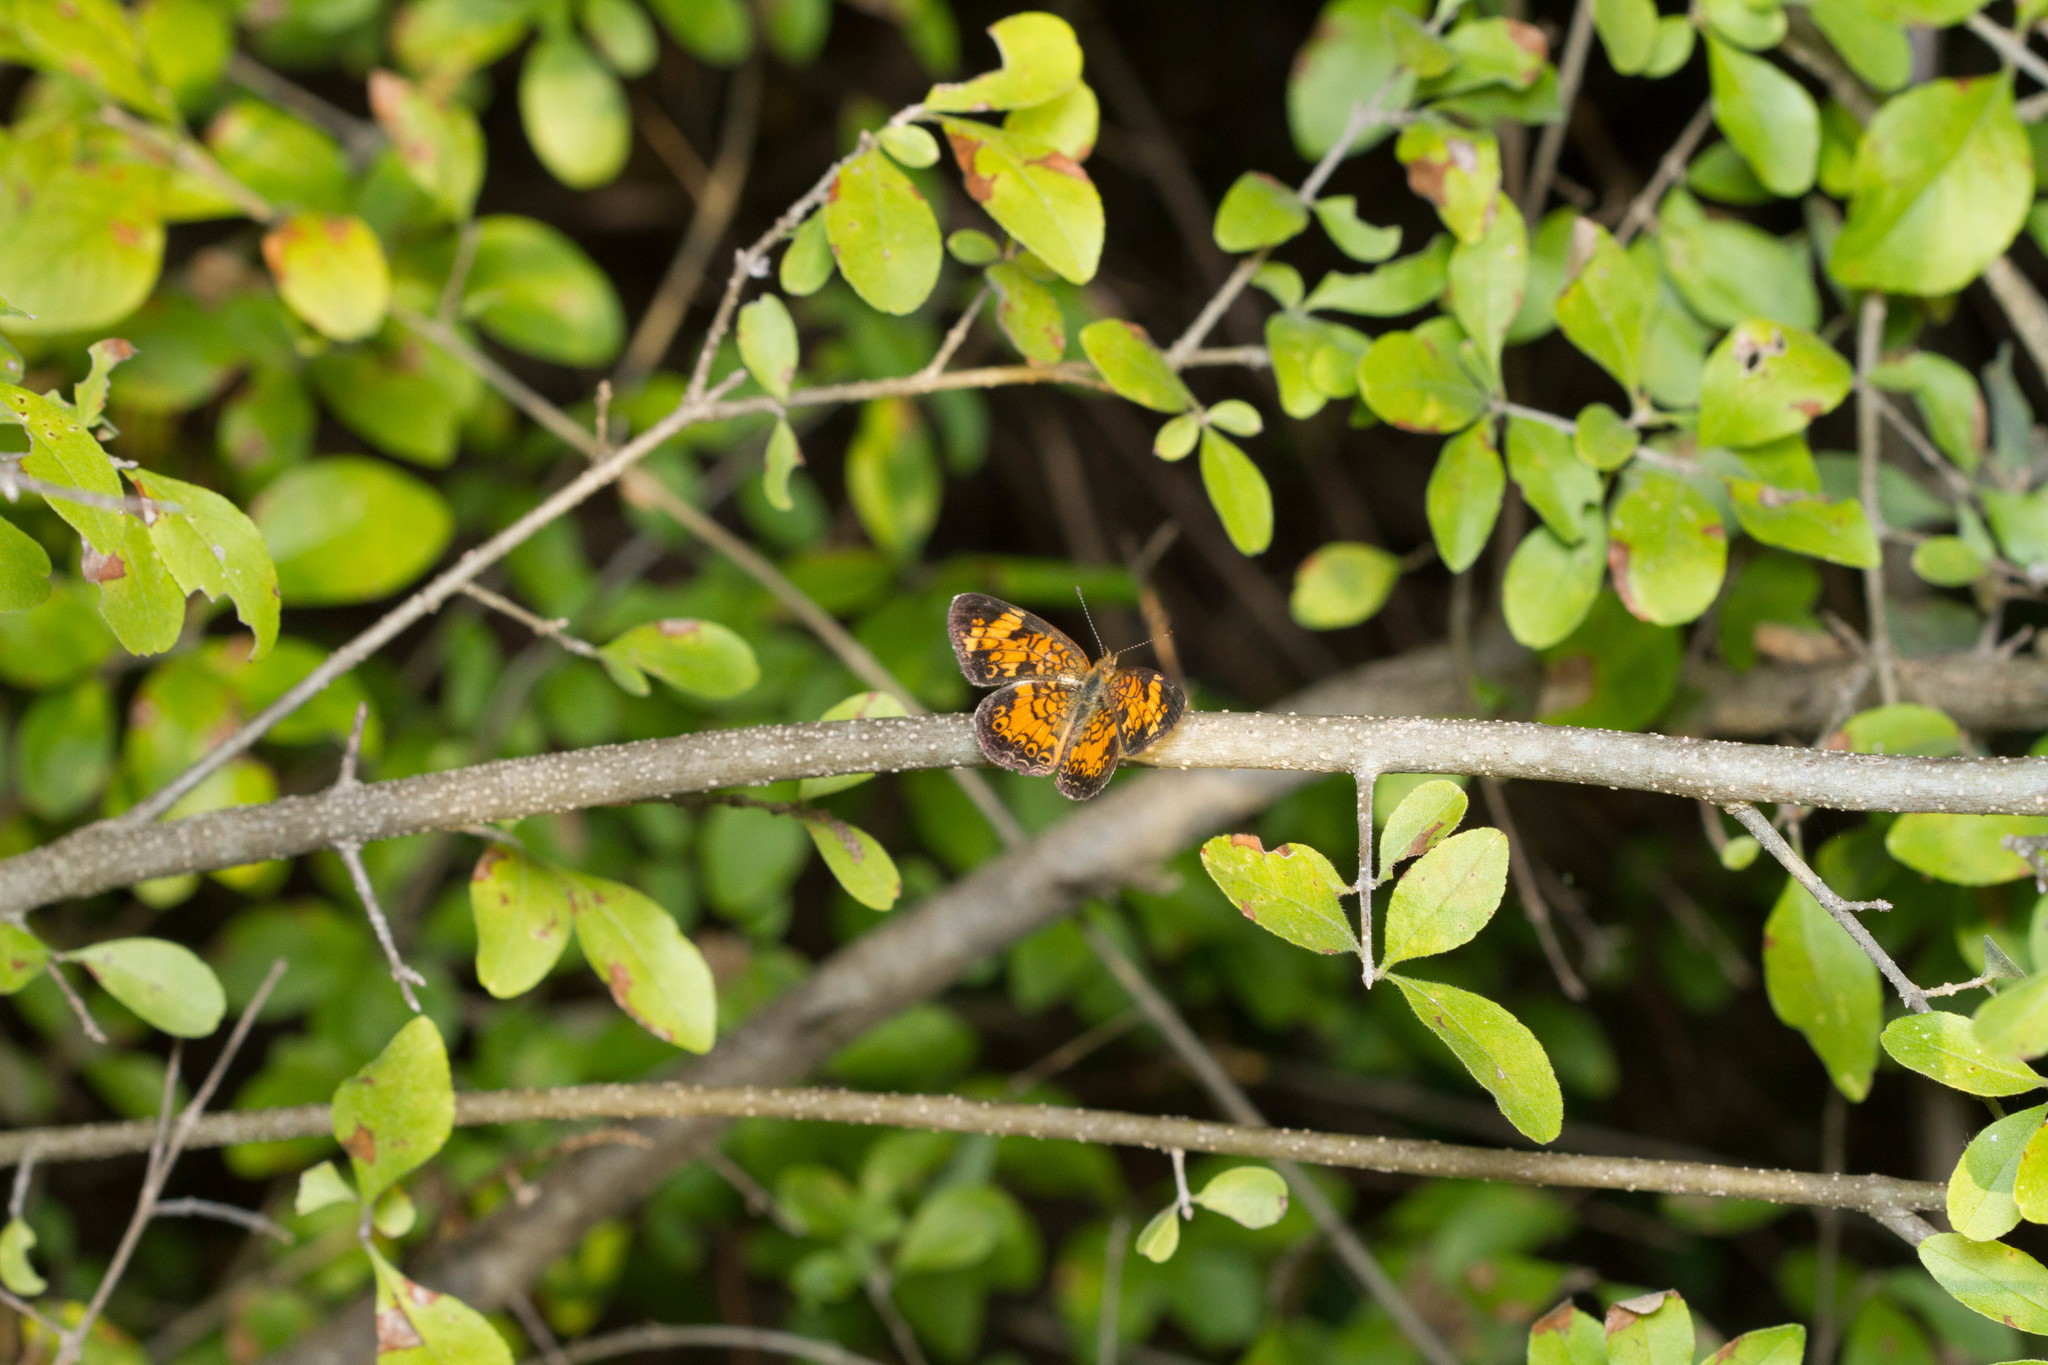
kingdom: Animalia
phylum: Arthropoda
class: Insecta
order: Lepidoptera
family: Nymphalidae
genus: Phyciodes
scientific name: Phyciodes tharos
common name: Pearl crescent
